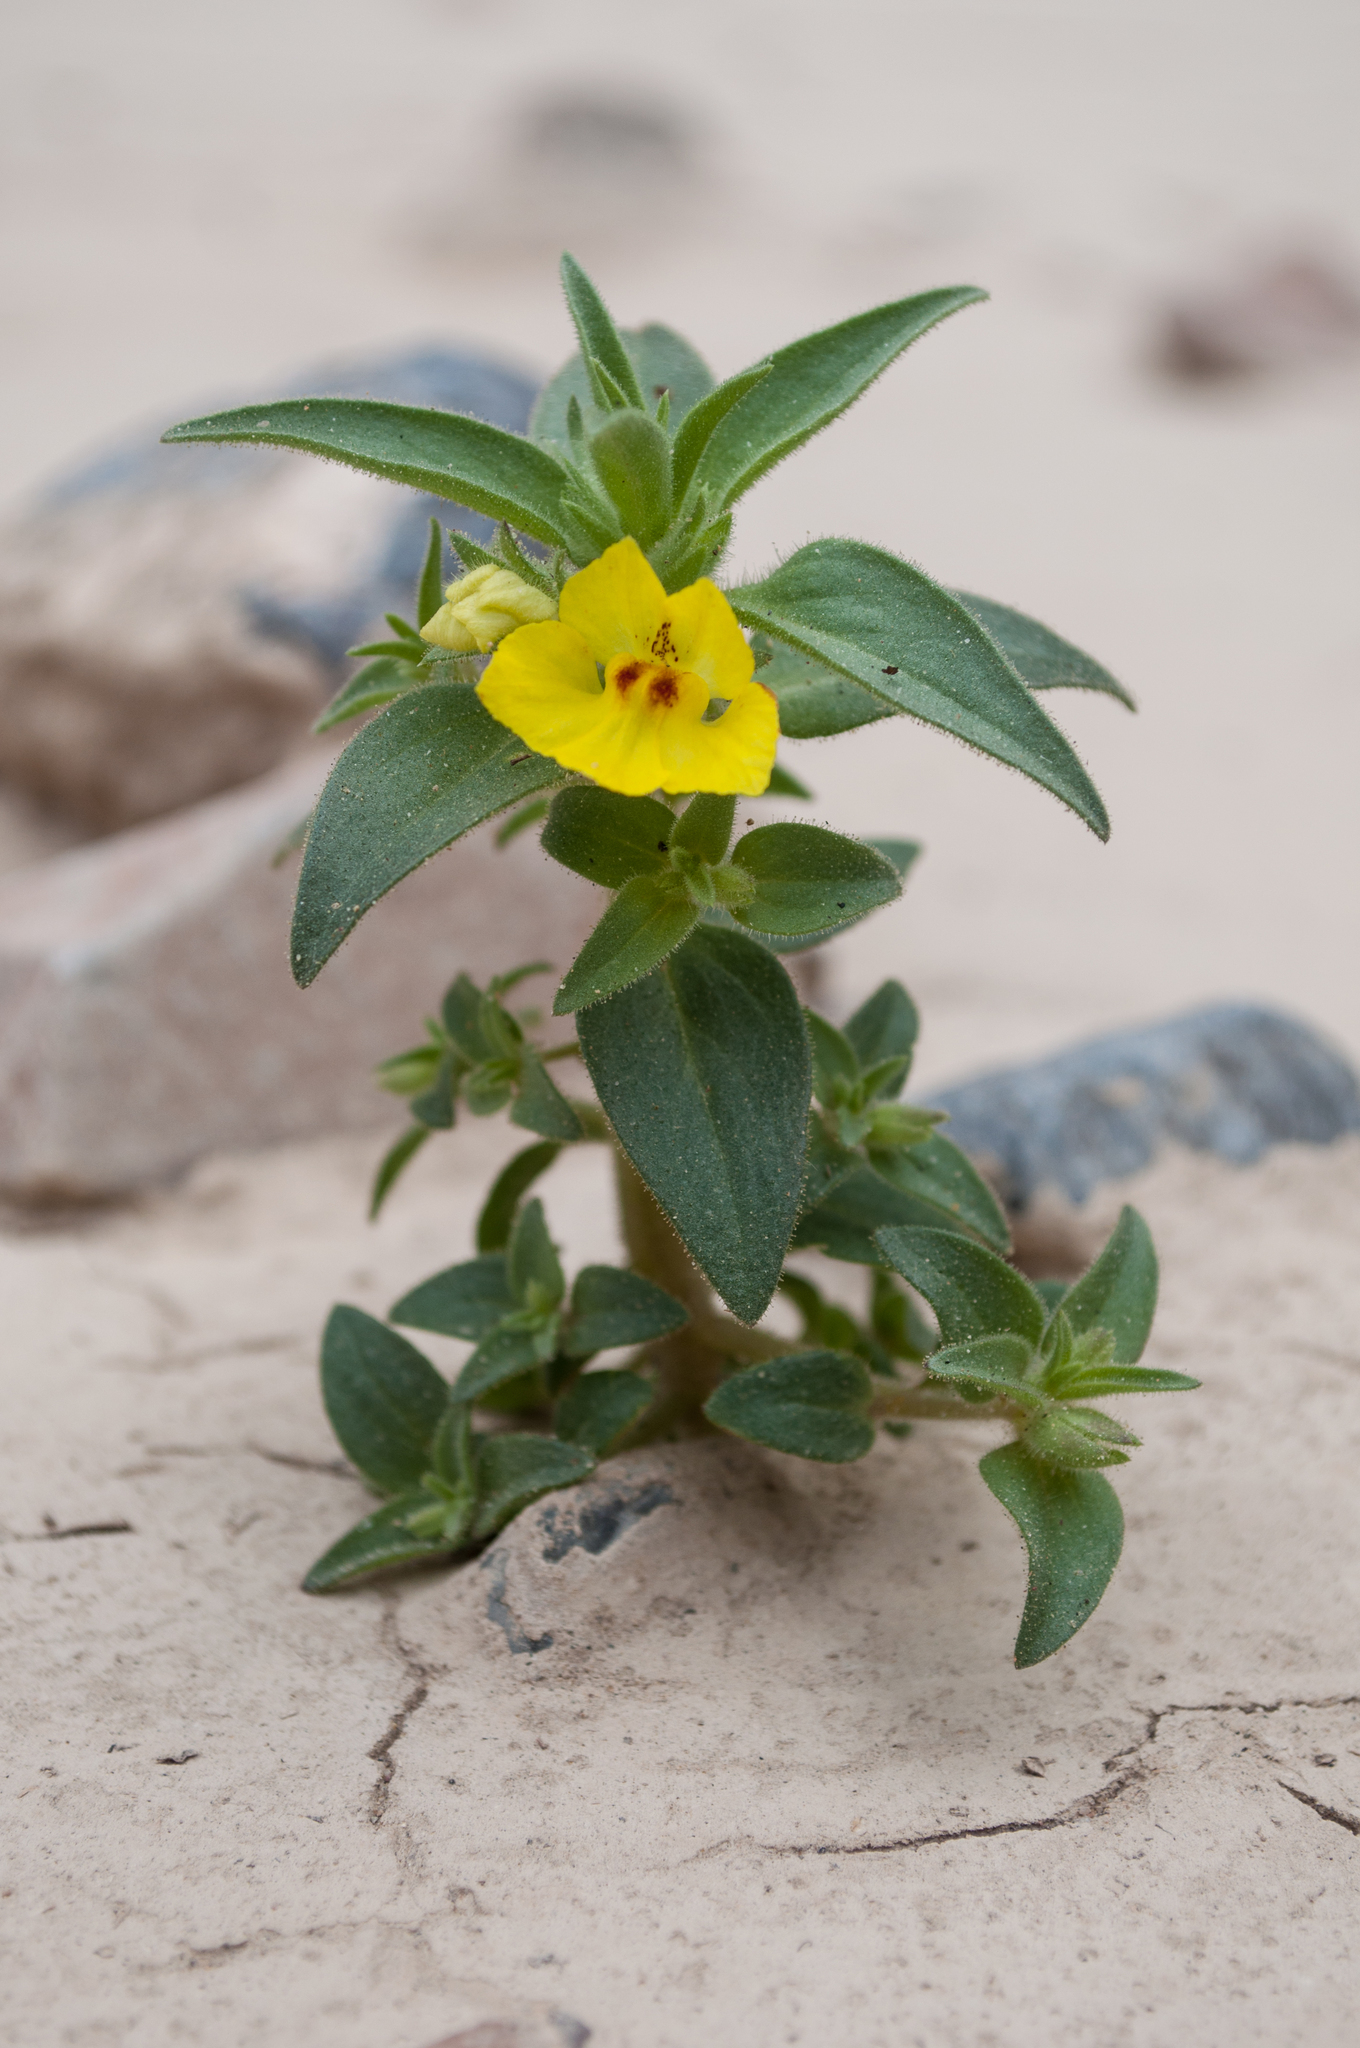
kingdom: Plantae
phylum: Tracheophyta
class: Magnoliopsida
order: Lamiales
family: Plantaginaceae
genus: Mohavea
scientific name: Mohavea breviflora
